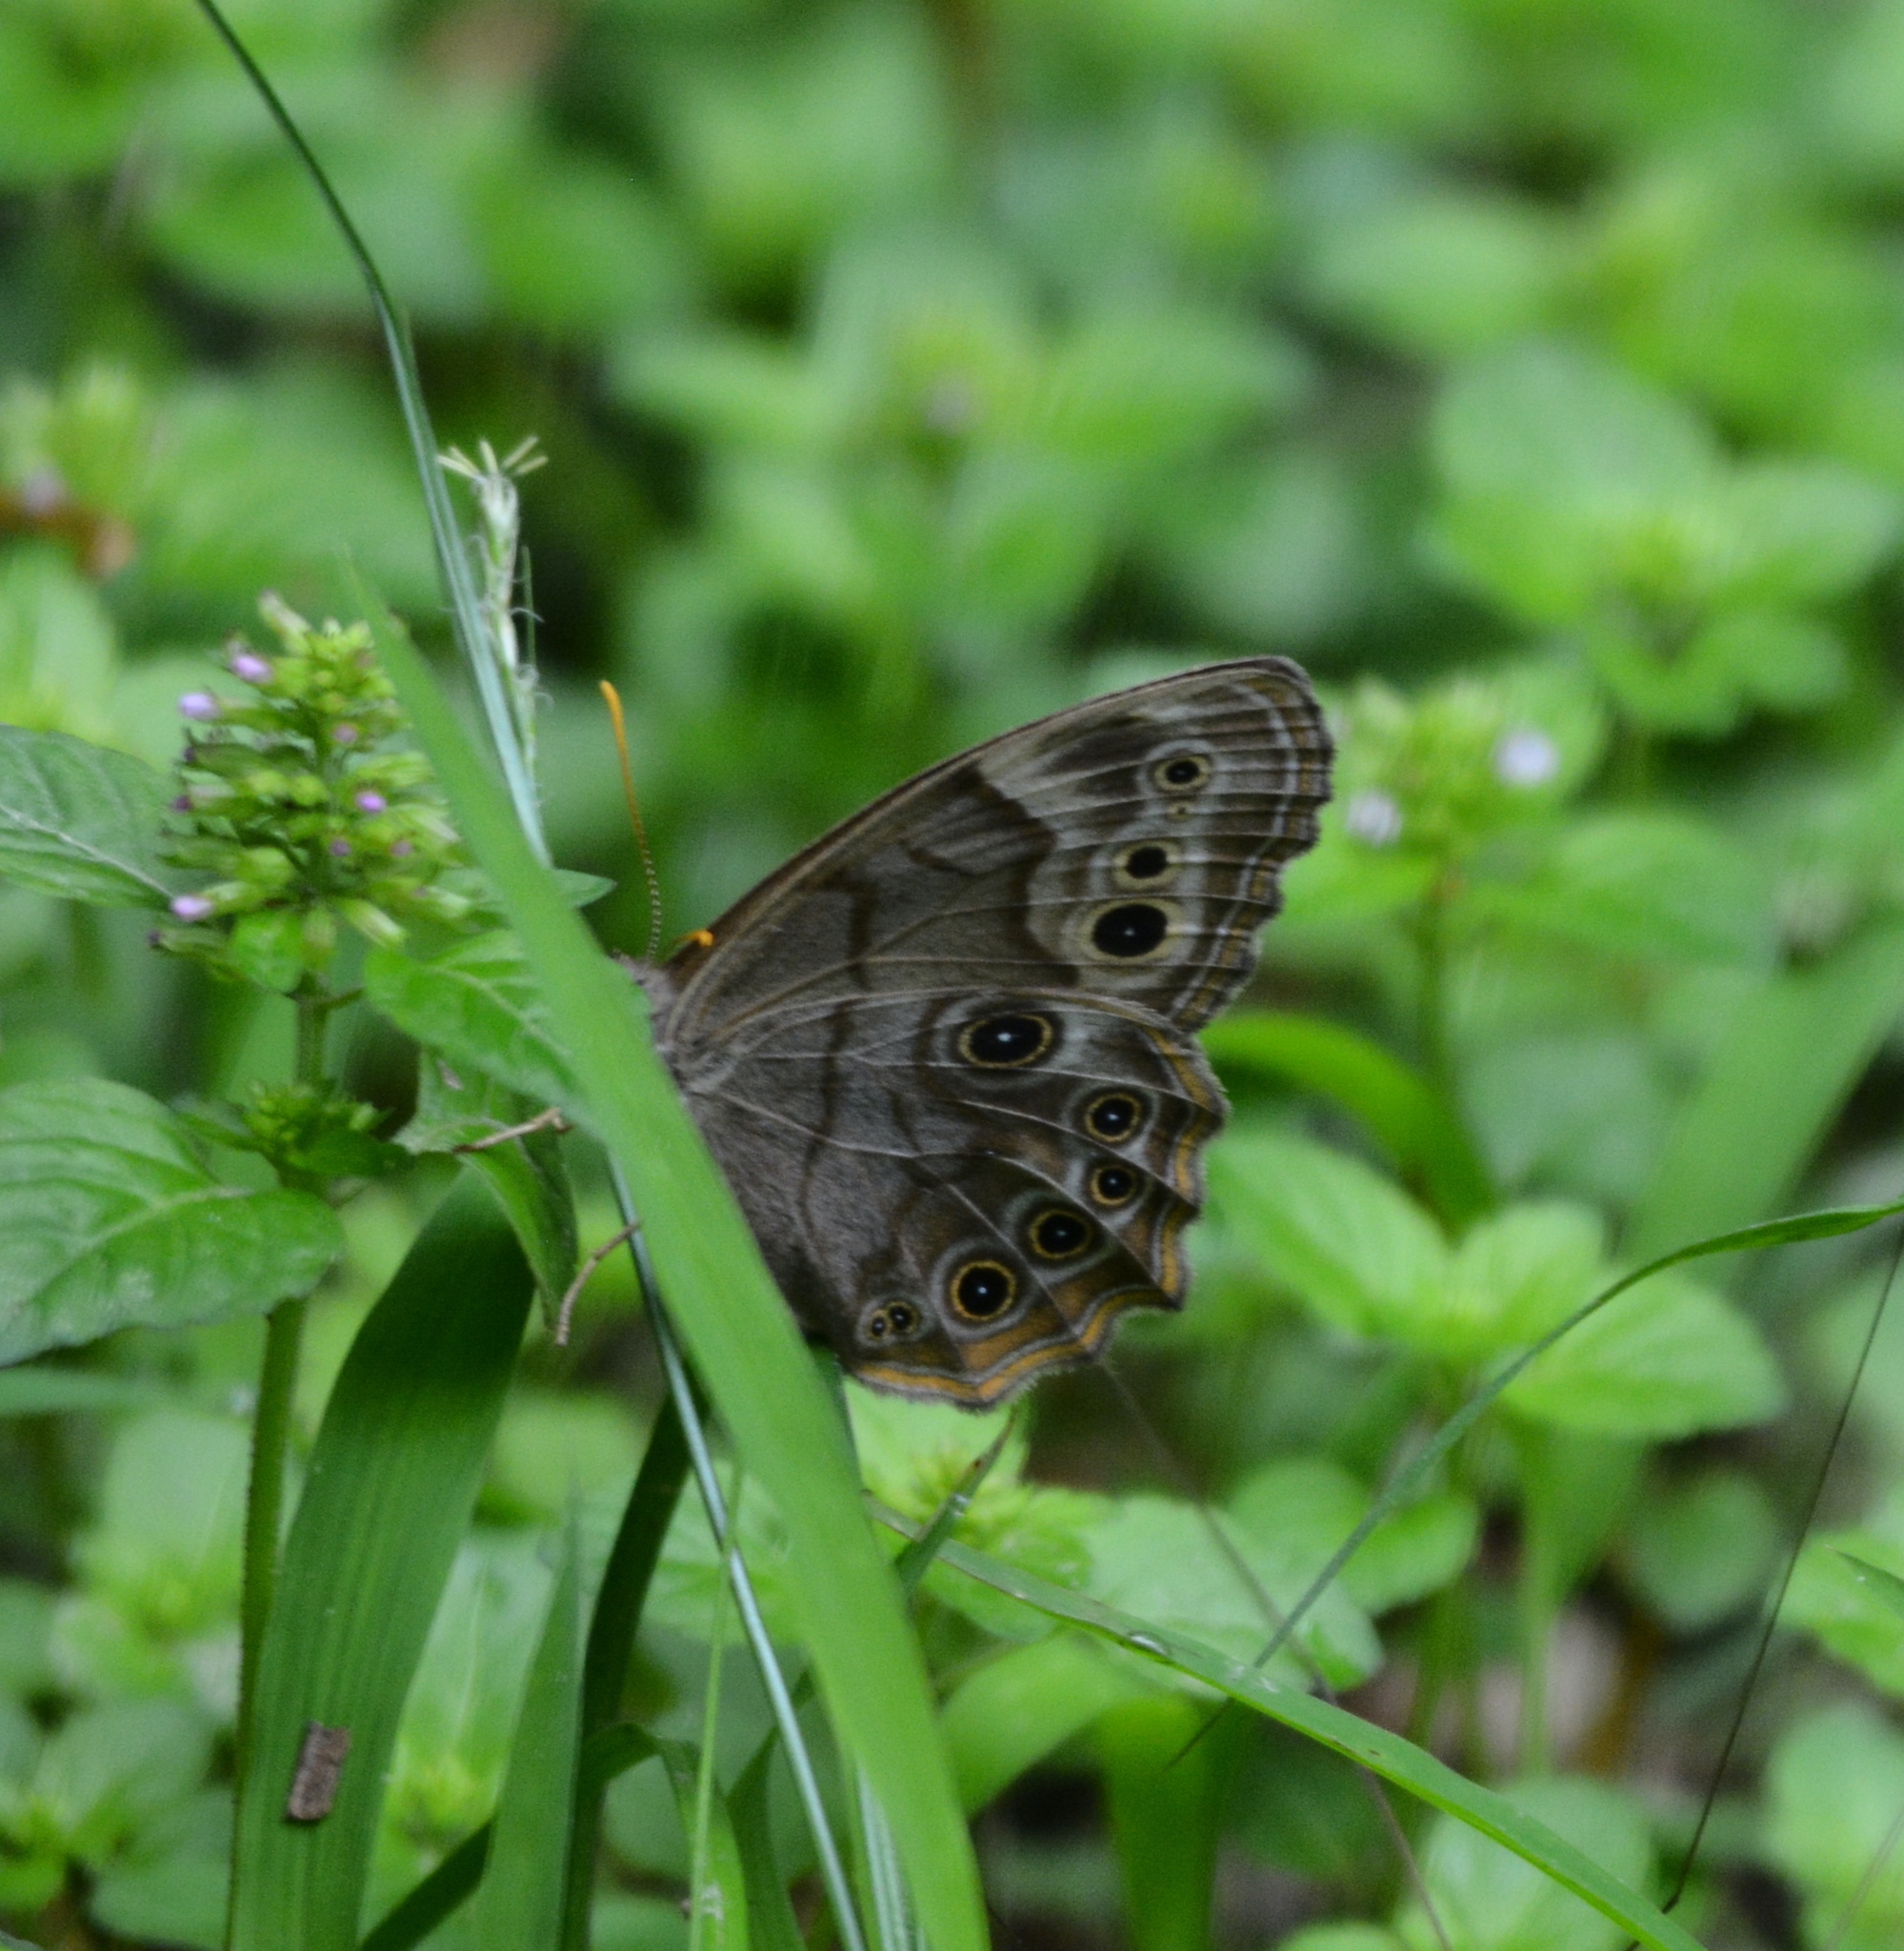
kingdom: Animalia
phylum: Arthropoda
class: Insecta
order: Lepidoptera
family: Nymphalidae
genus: Enodia
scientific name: Enodia portlandia
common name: Southern pearly-eye
